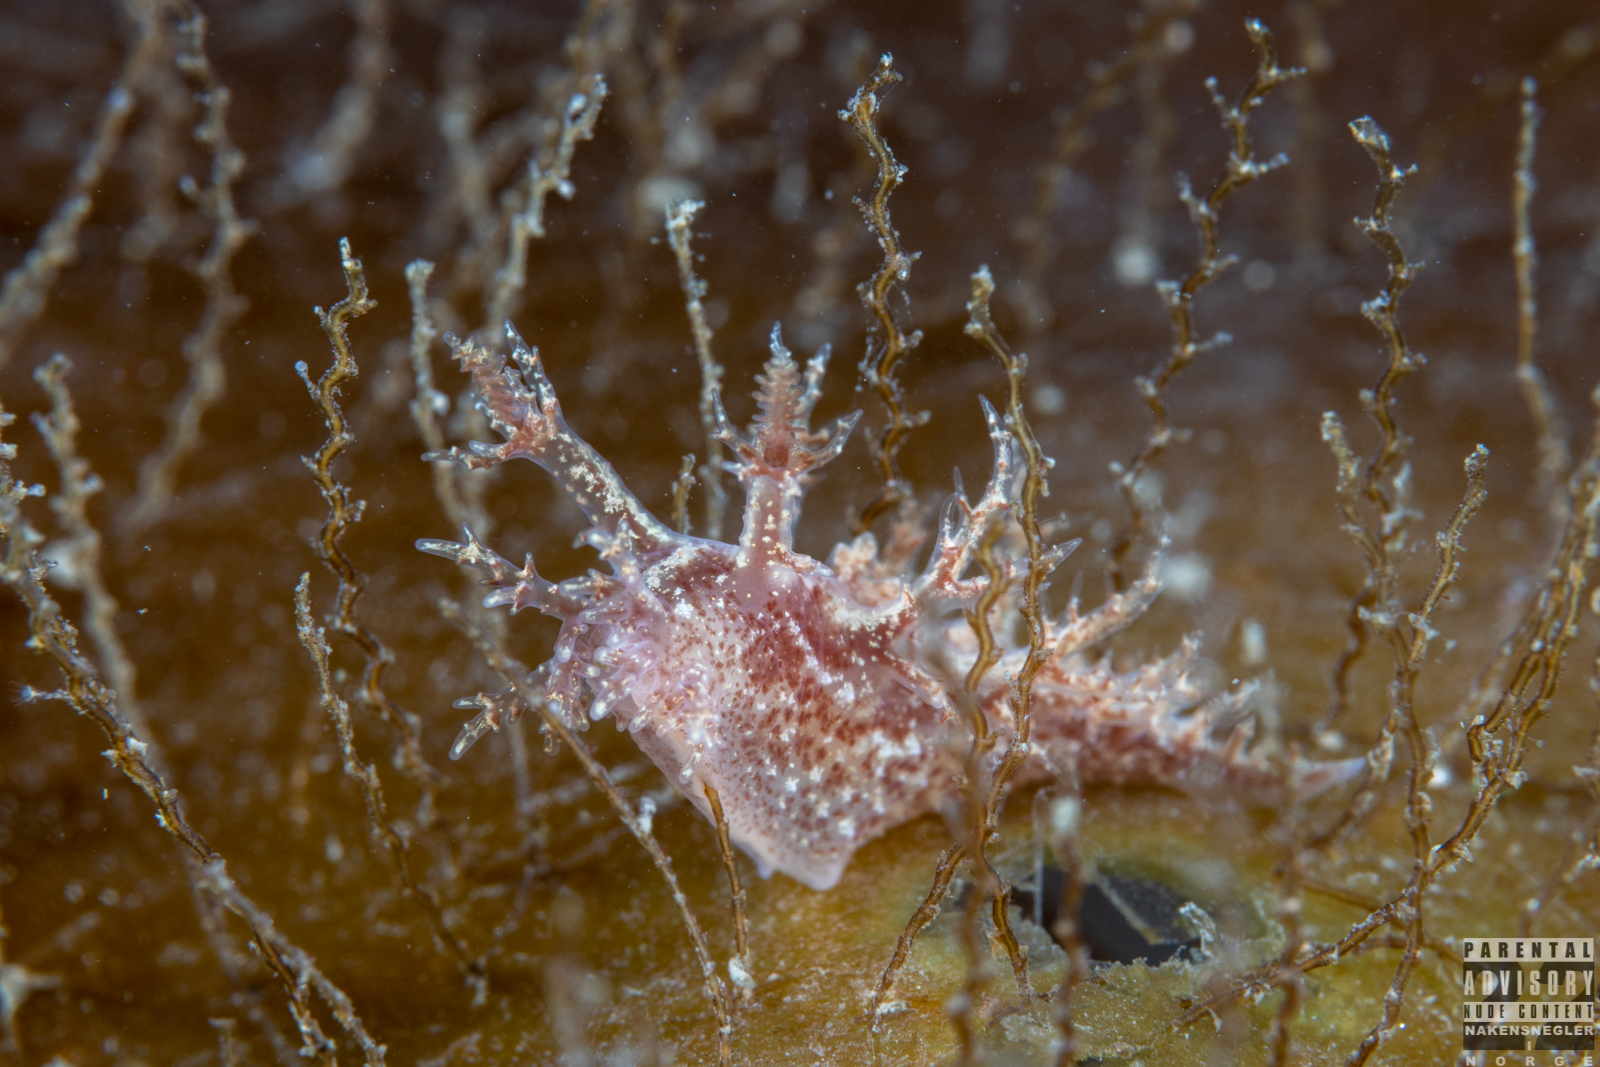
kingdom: Animalia
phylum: Mollusca
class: Gastropoda
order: Nudibranchia
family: Dendronotidae
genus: Dendronotus
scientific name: Dendronotus frondosus
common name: Bushy-backed nudibranch
